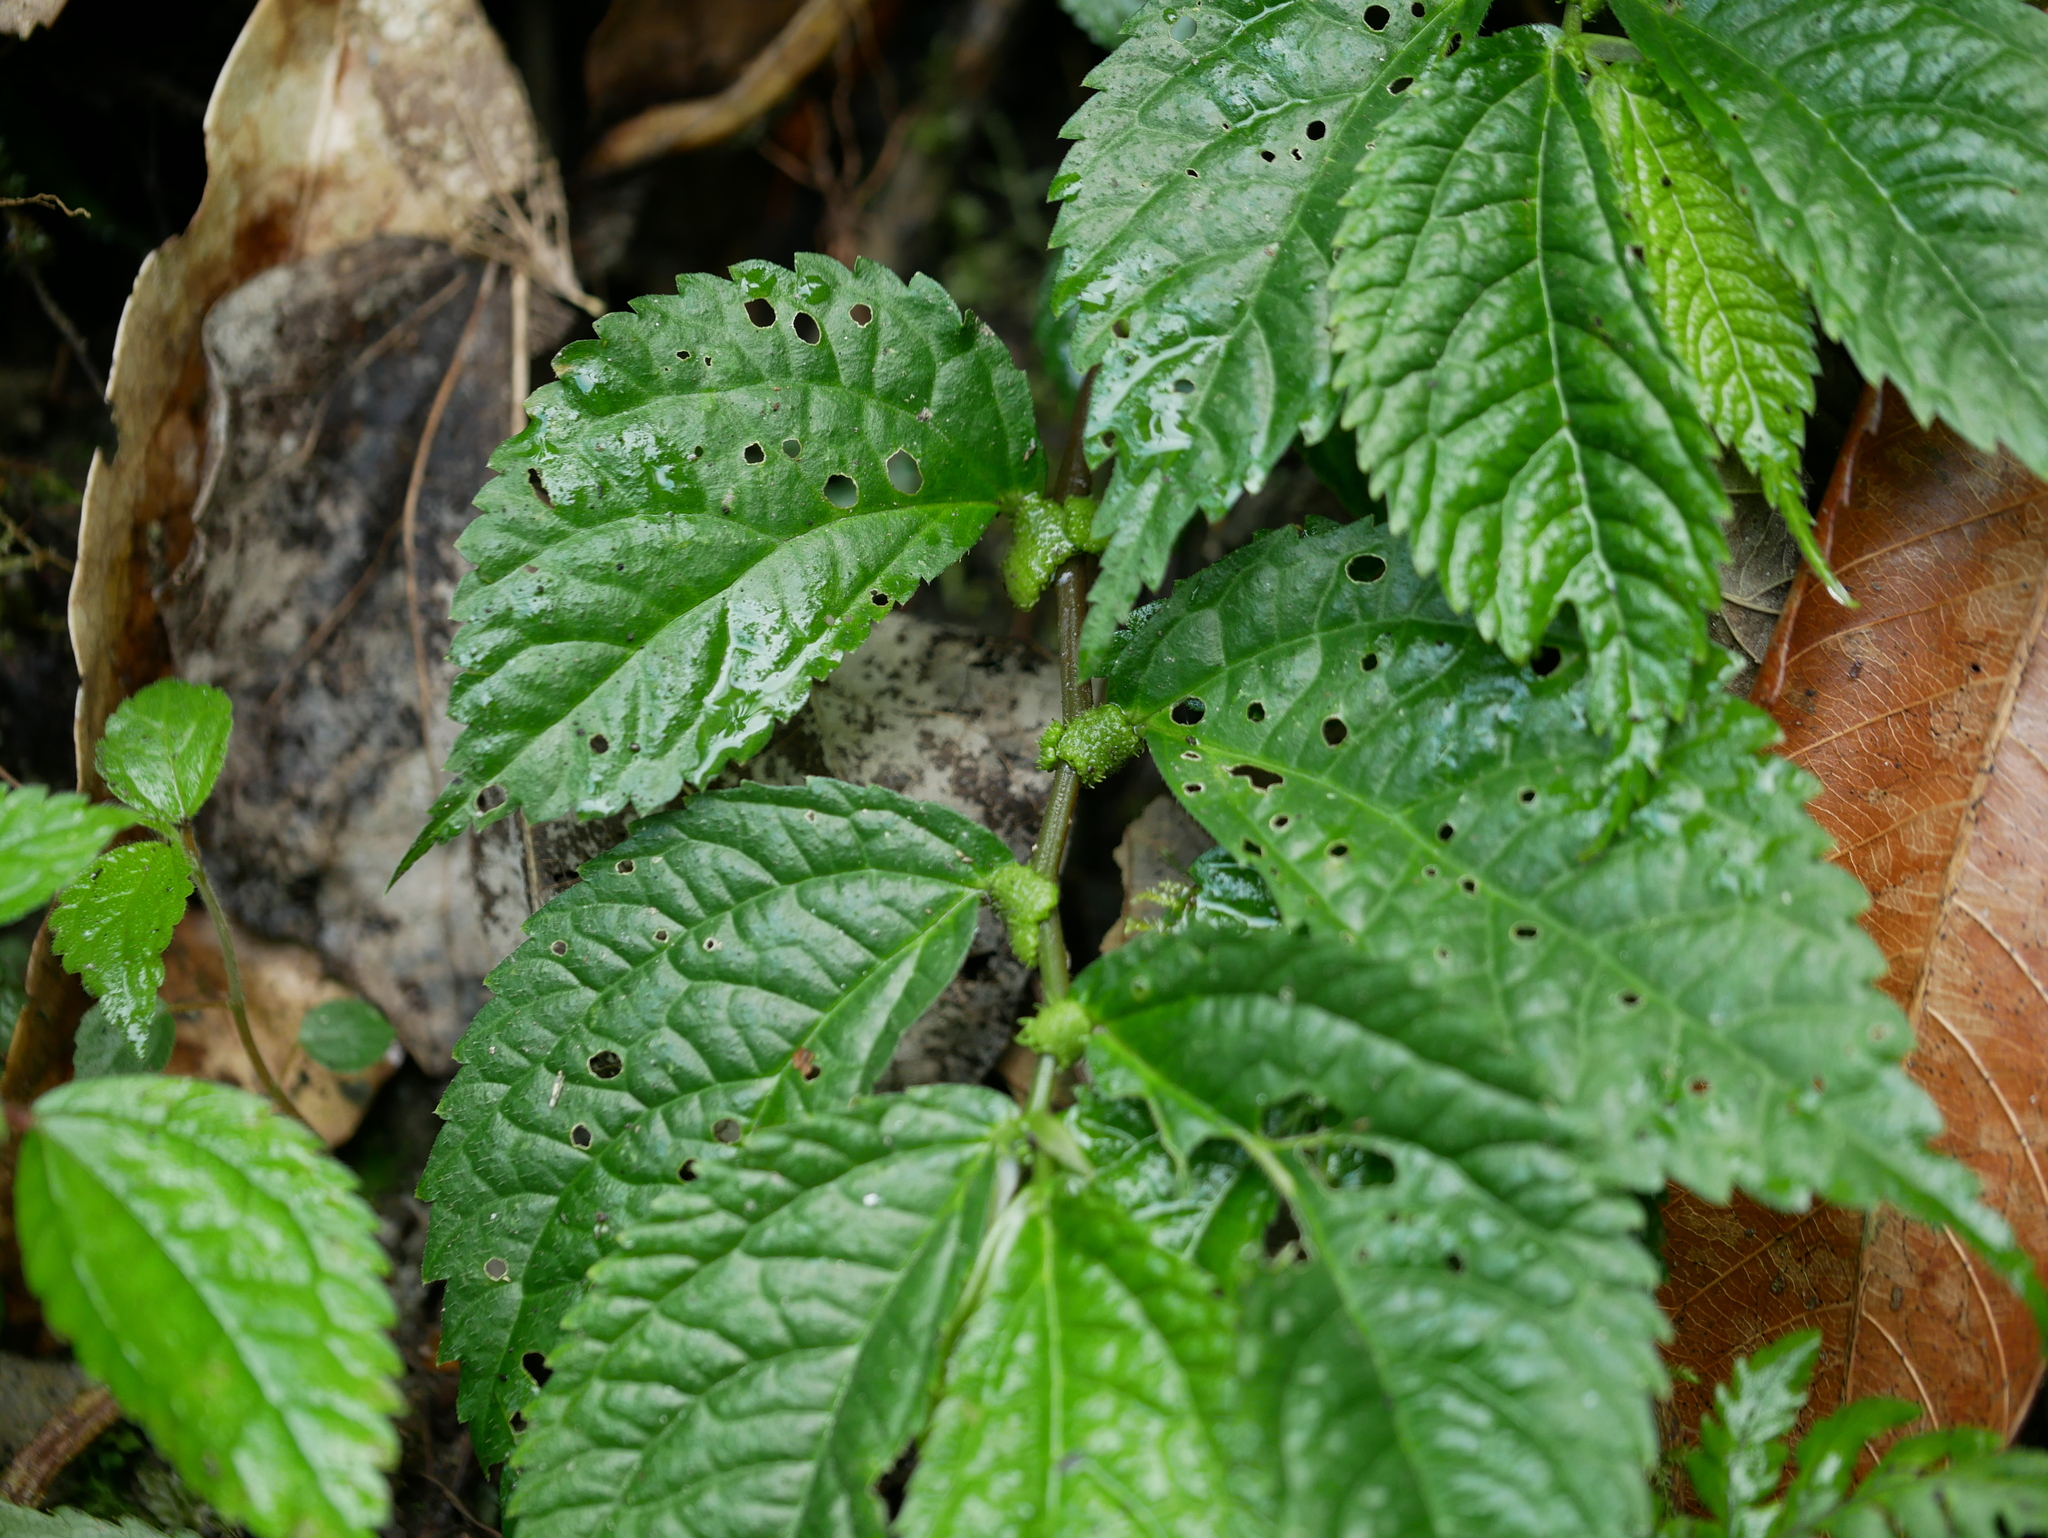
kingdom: Plantae
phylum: Tracheophyta
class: Magnoliopsida
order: Rosales
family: Urticaceae
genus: Elatostema
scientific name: Elatostema rivulare
